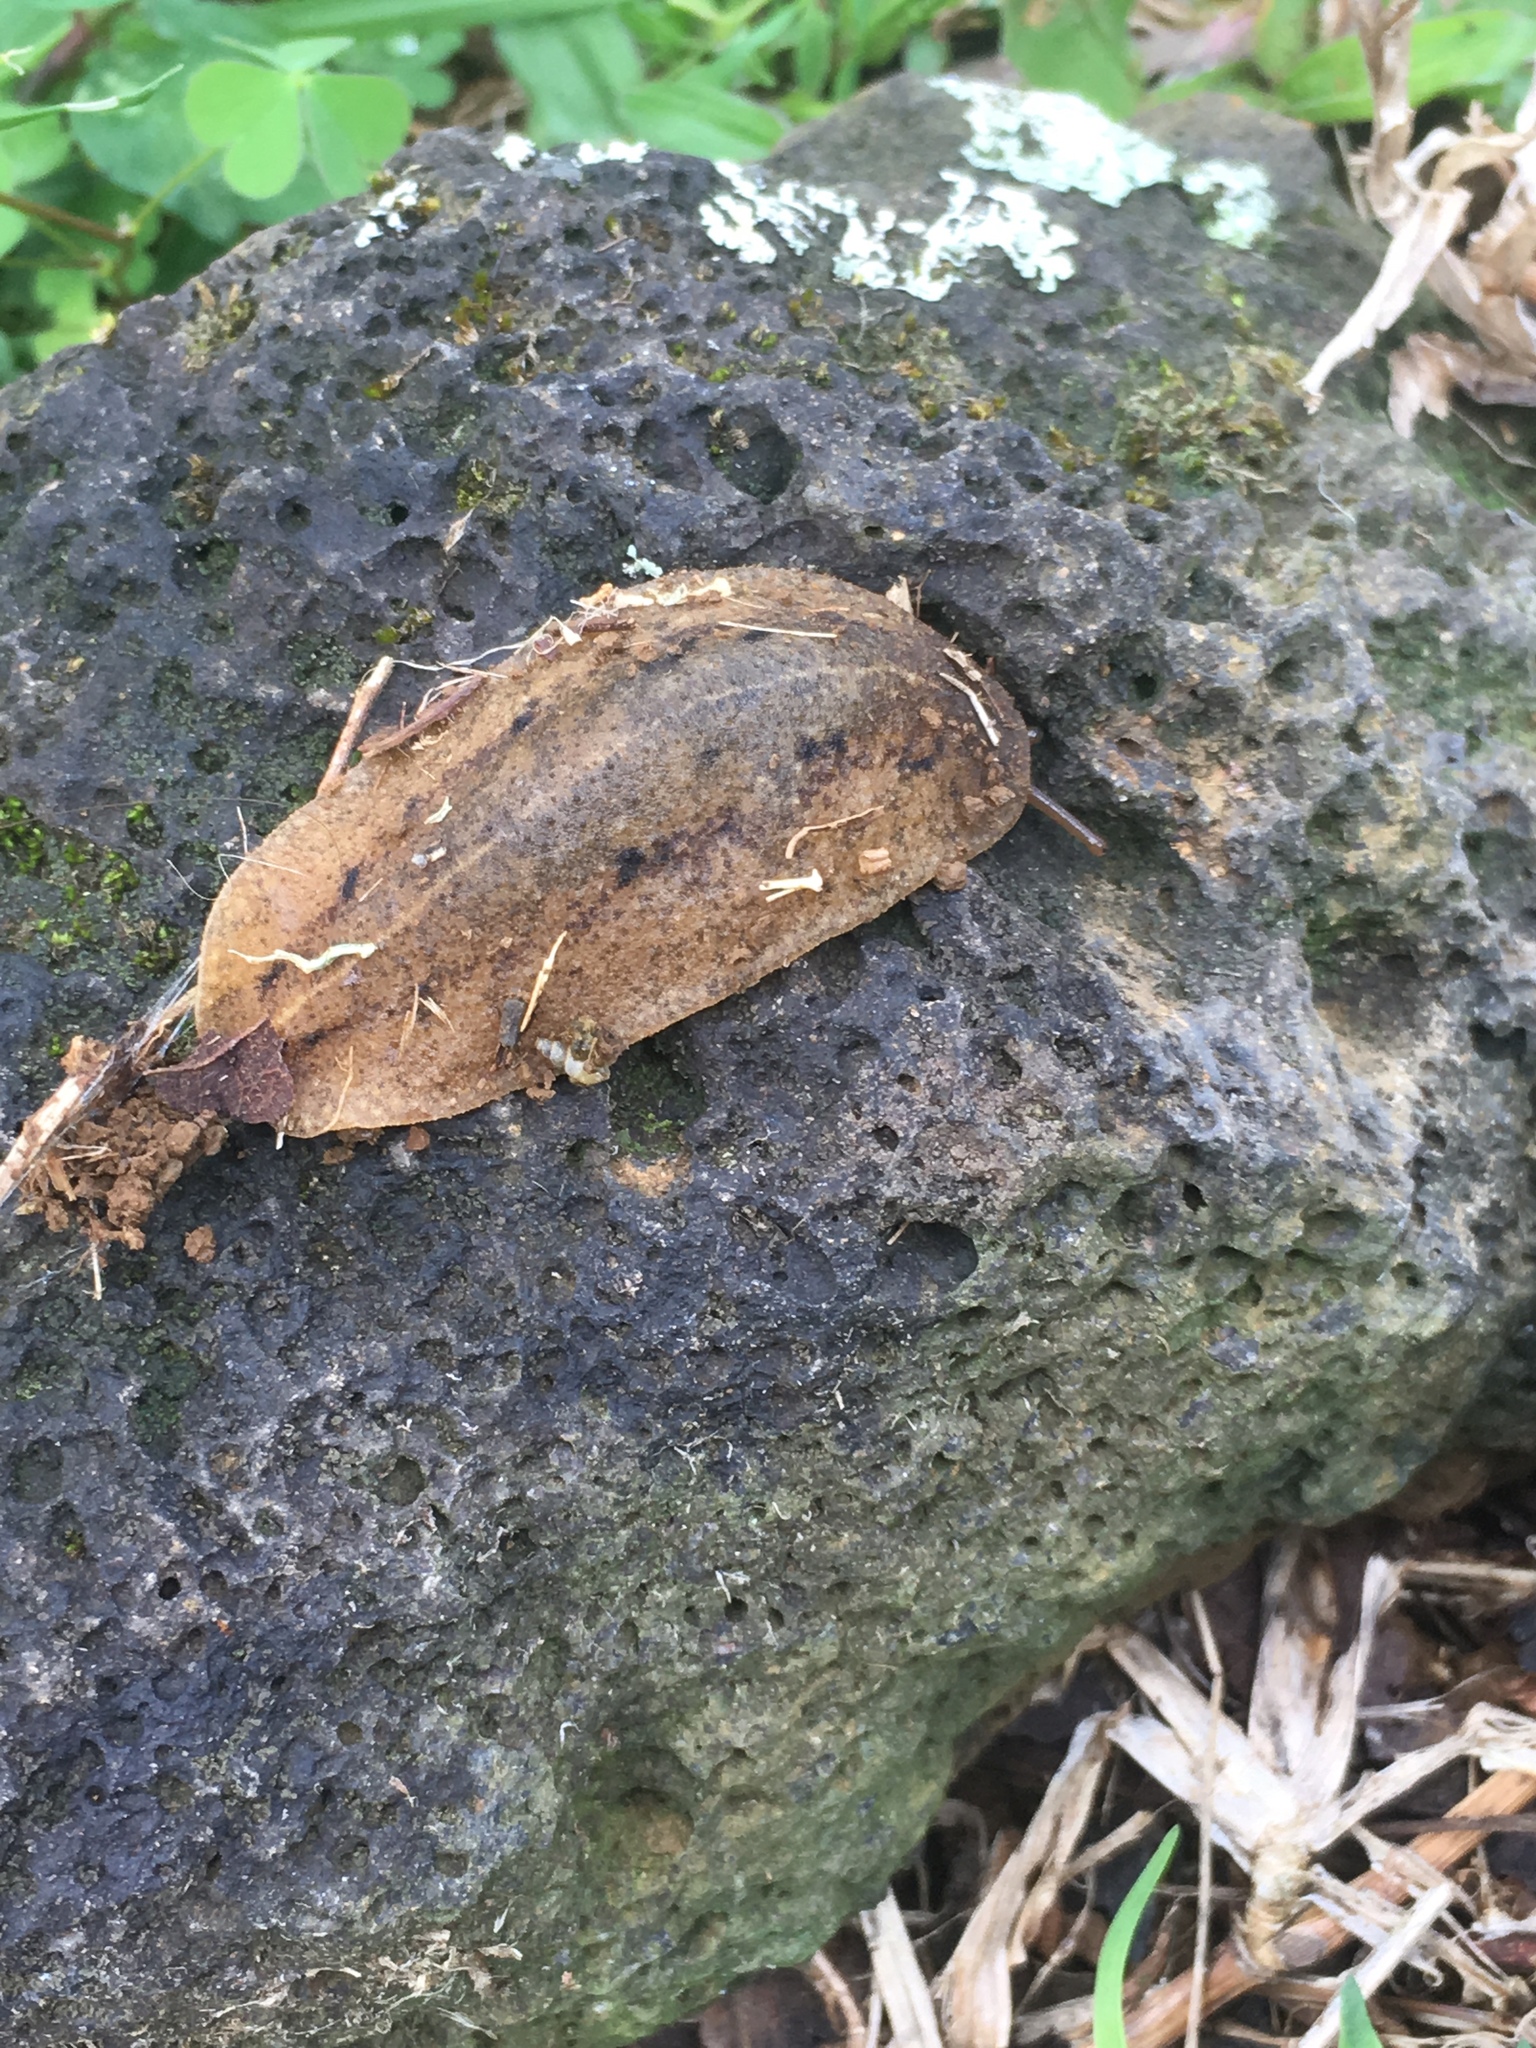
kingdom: Animalia
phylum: Mollusca
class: Gastropoda
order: Systellommatophora
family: Veronicellidae
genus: Veronicella
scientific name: Veronicella cubensis
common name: Two striped slug
